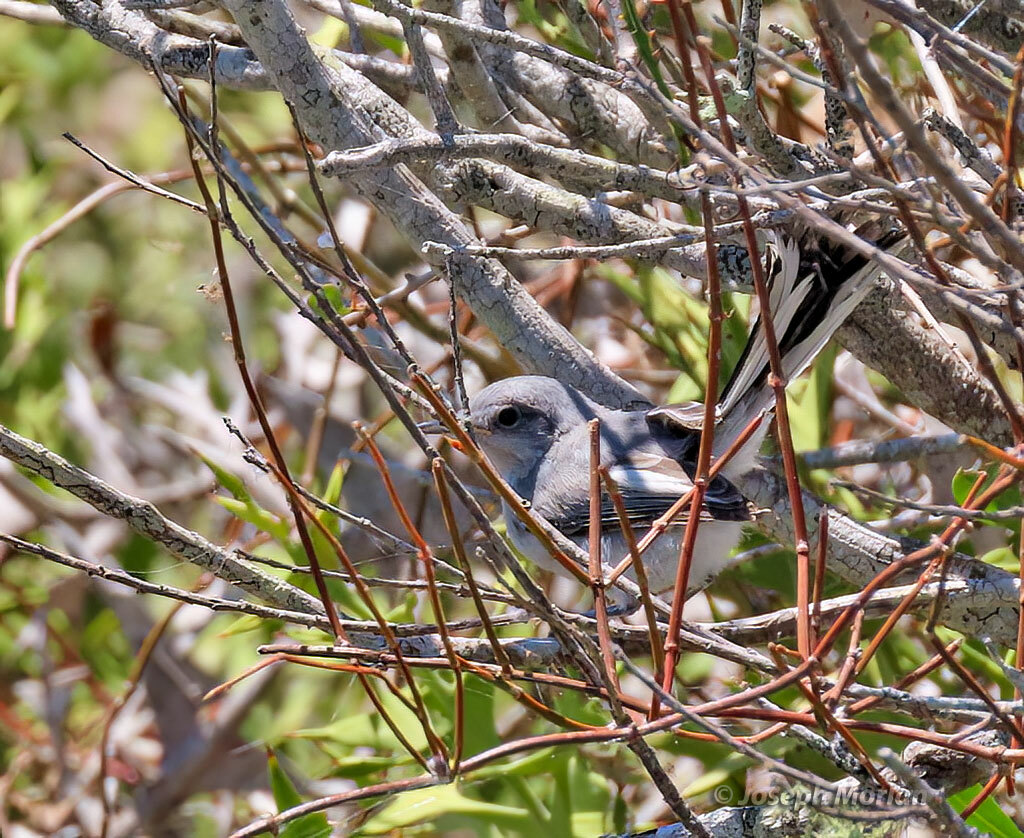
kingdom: Animalia
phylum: Chordata
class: Aves
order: Passeriformes
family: Polioptilidae
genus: Polioptila
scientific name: Polioptila dumicola
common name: Masked gnatcatcher
